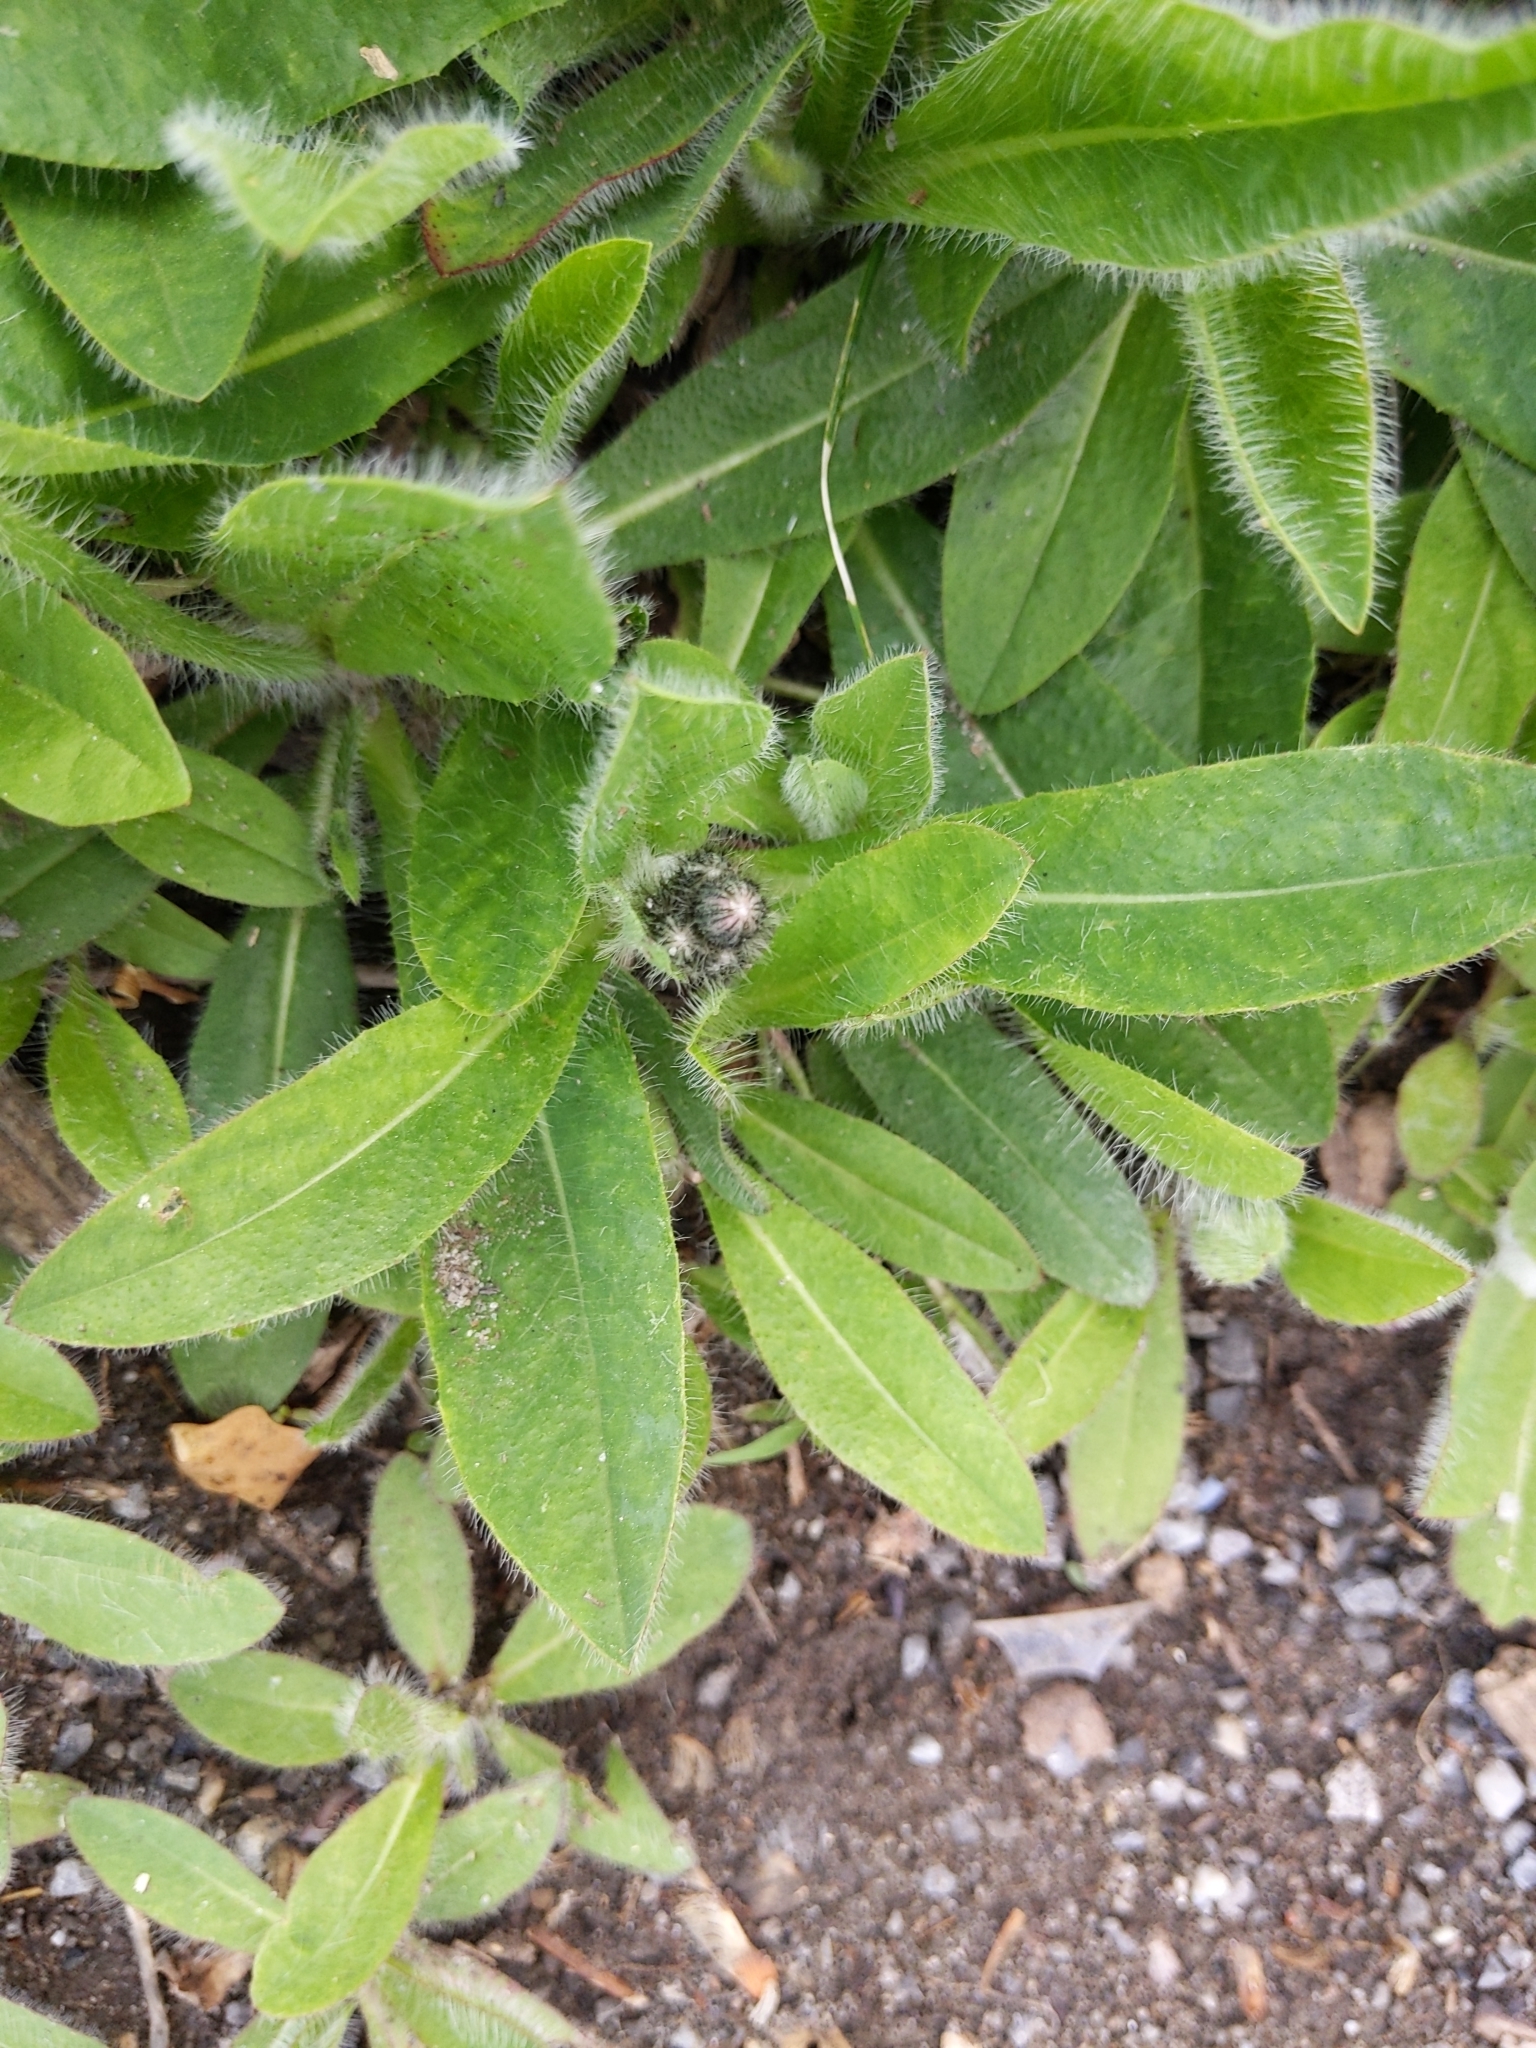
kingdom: Plantae
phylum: Tracheophyta
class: Magnoliopsida
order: Asterales
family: Asteraceae
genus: Pilosella
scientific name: Pilosella aurantiaca
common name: Fox-and-cubs
